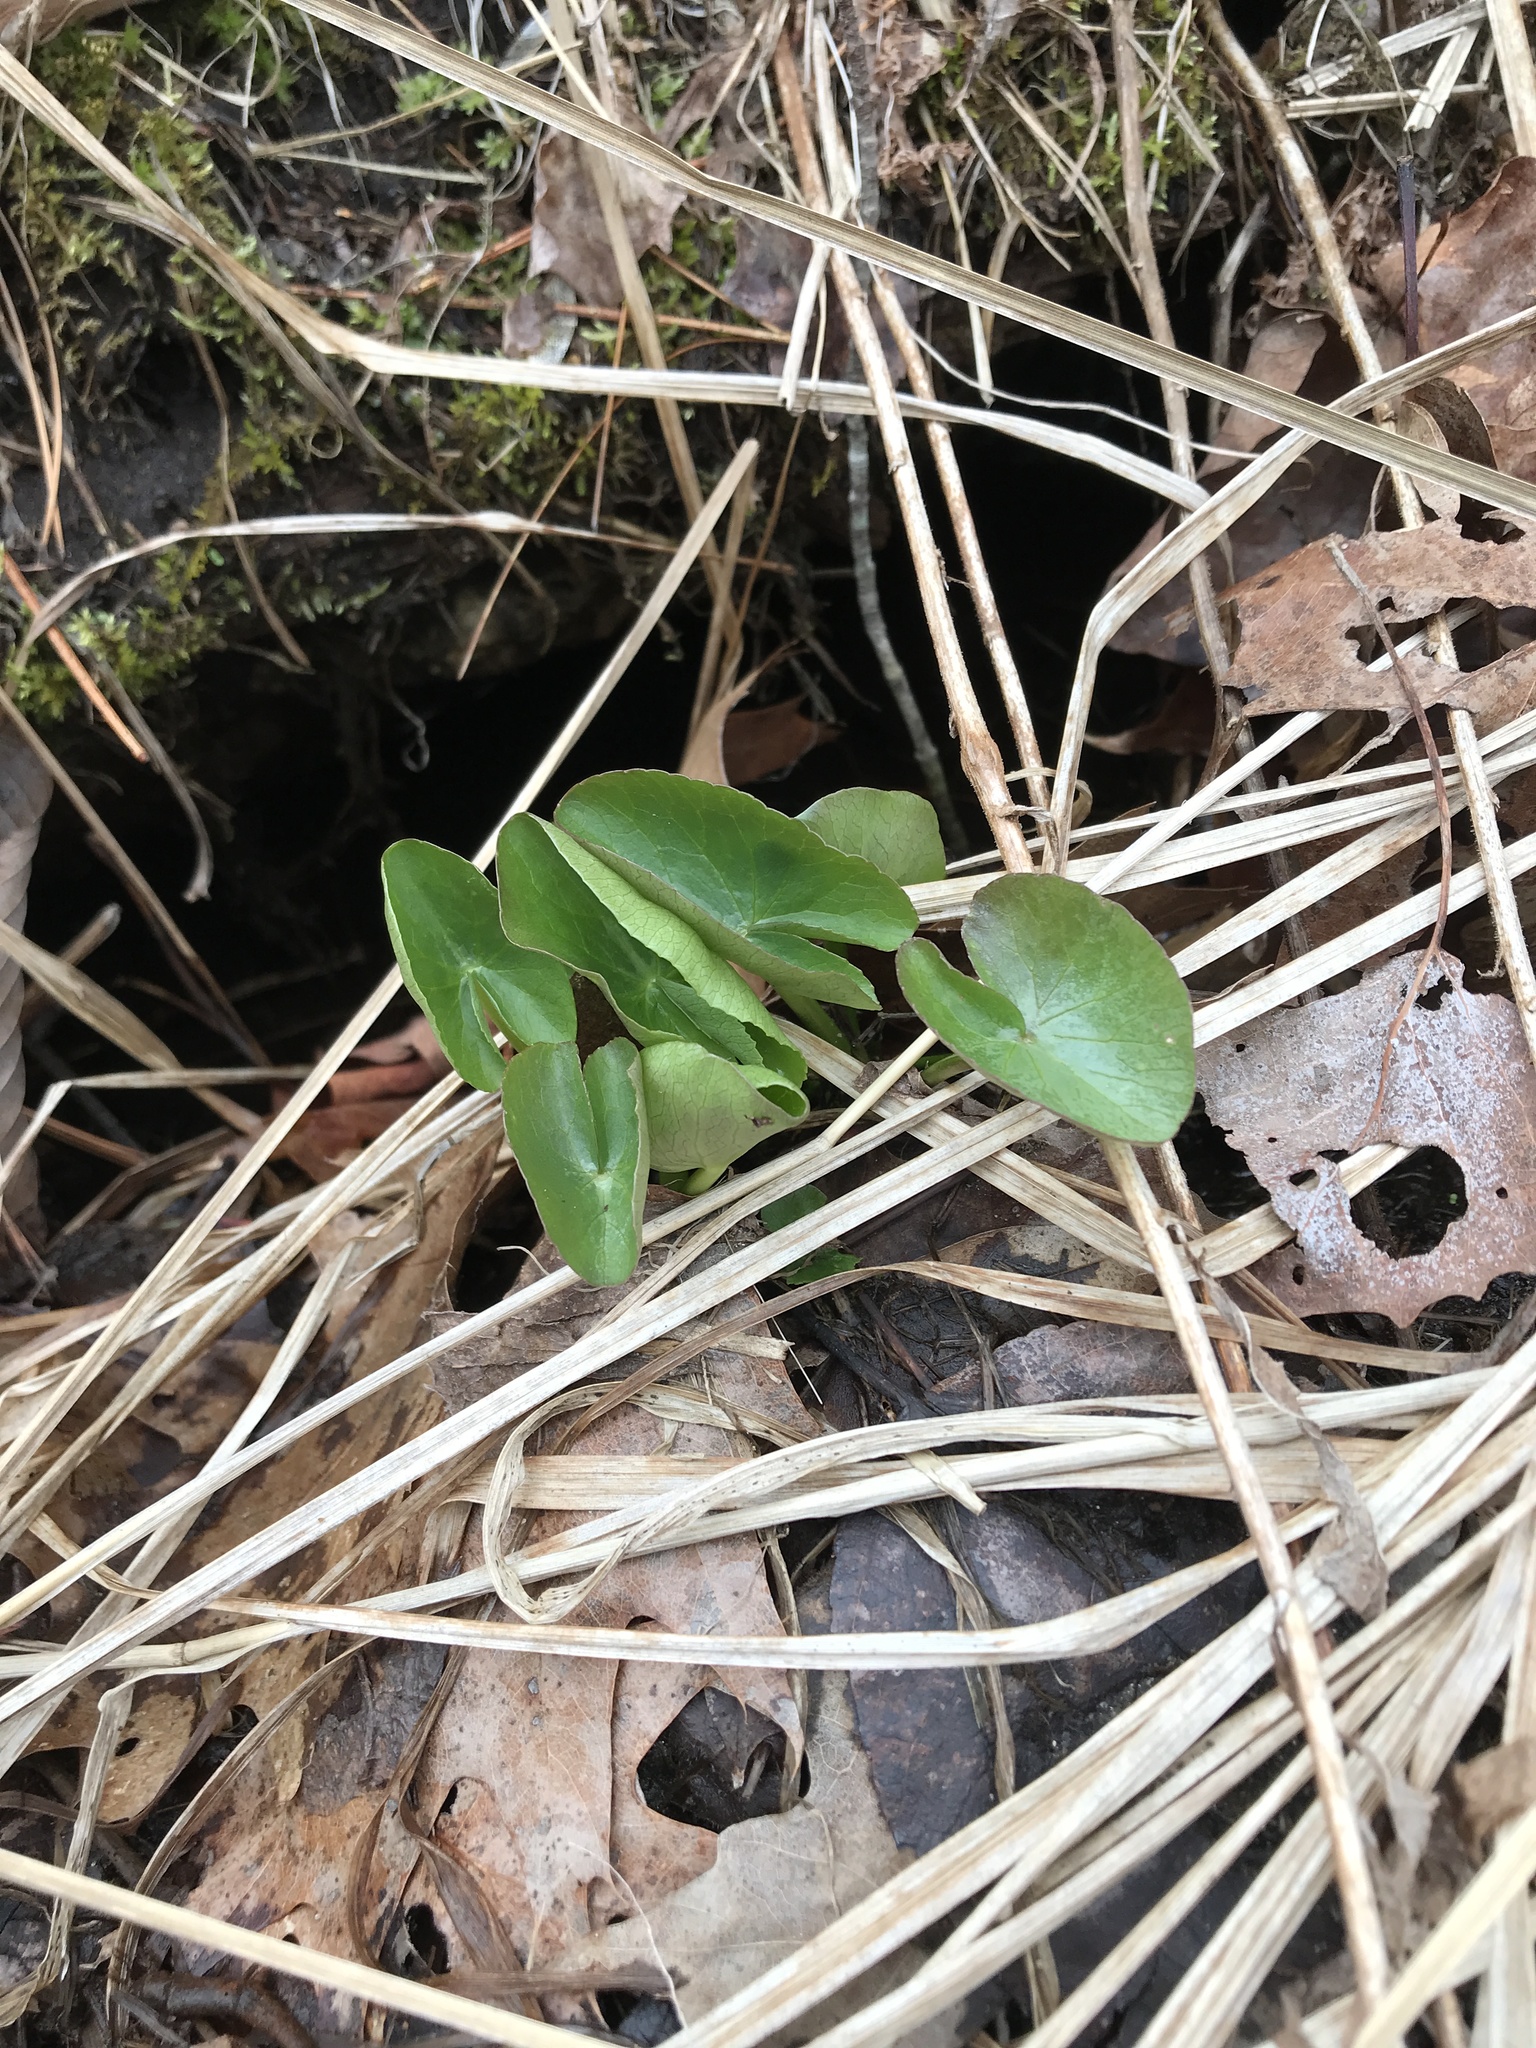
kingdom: Plantae
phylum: Tracheophyta
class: Magnoliopsida
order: Ranunculales
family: Ranunculaceae
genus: Caltha
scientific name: Caltha palustris
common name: Marsh marigold
